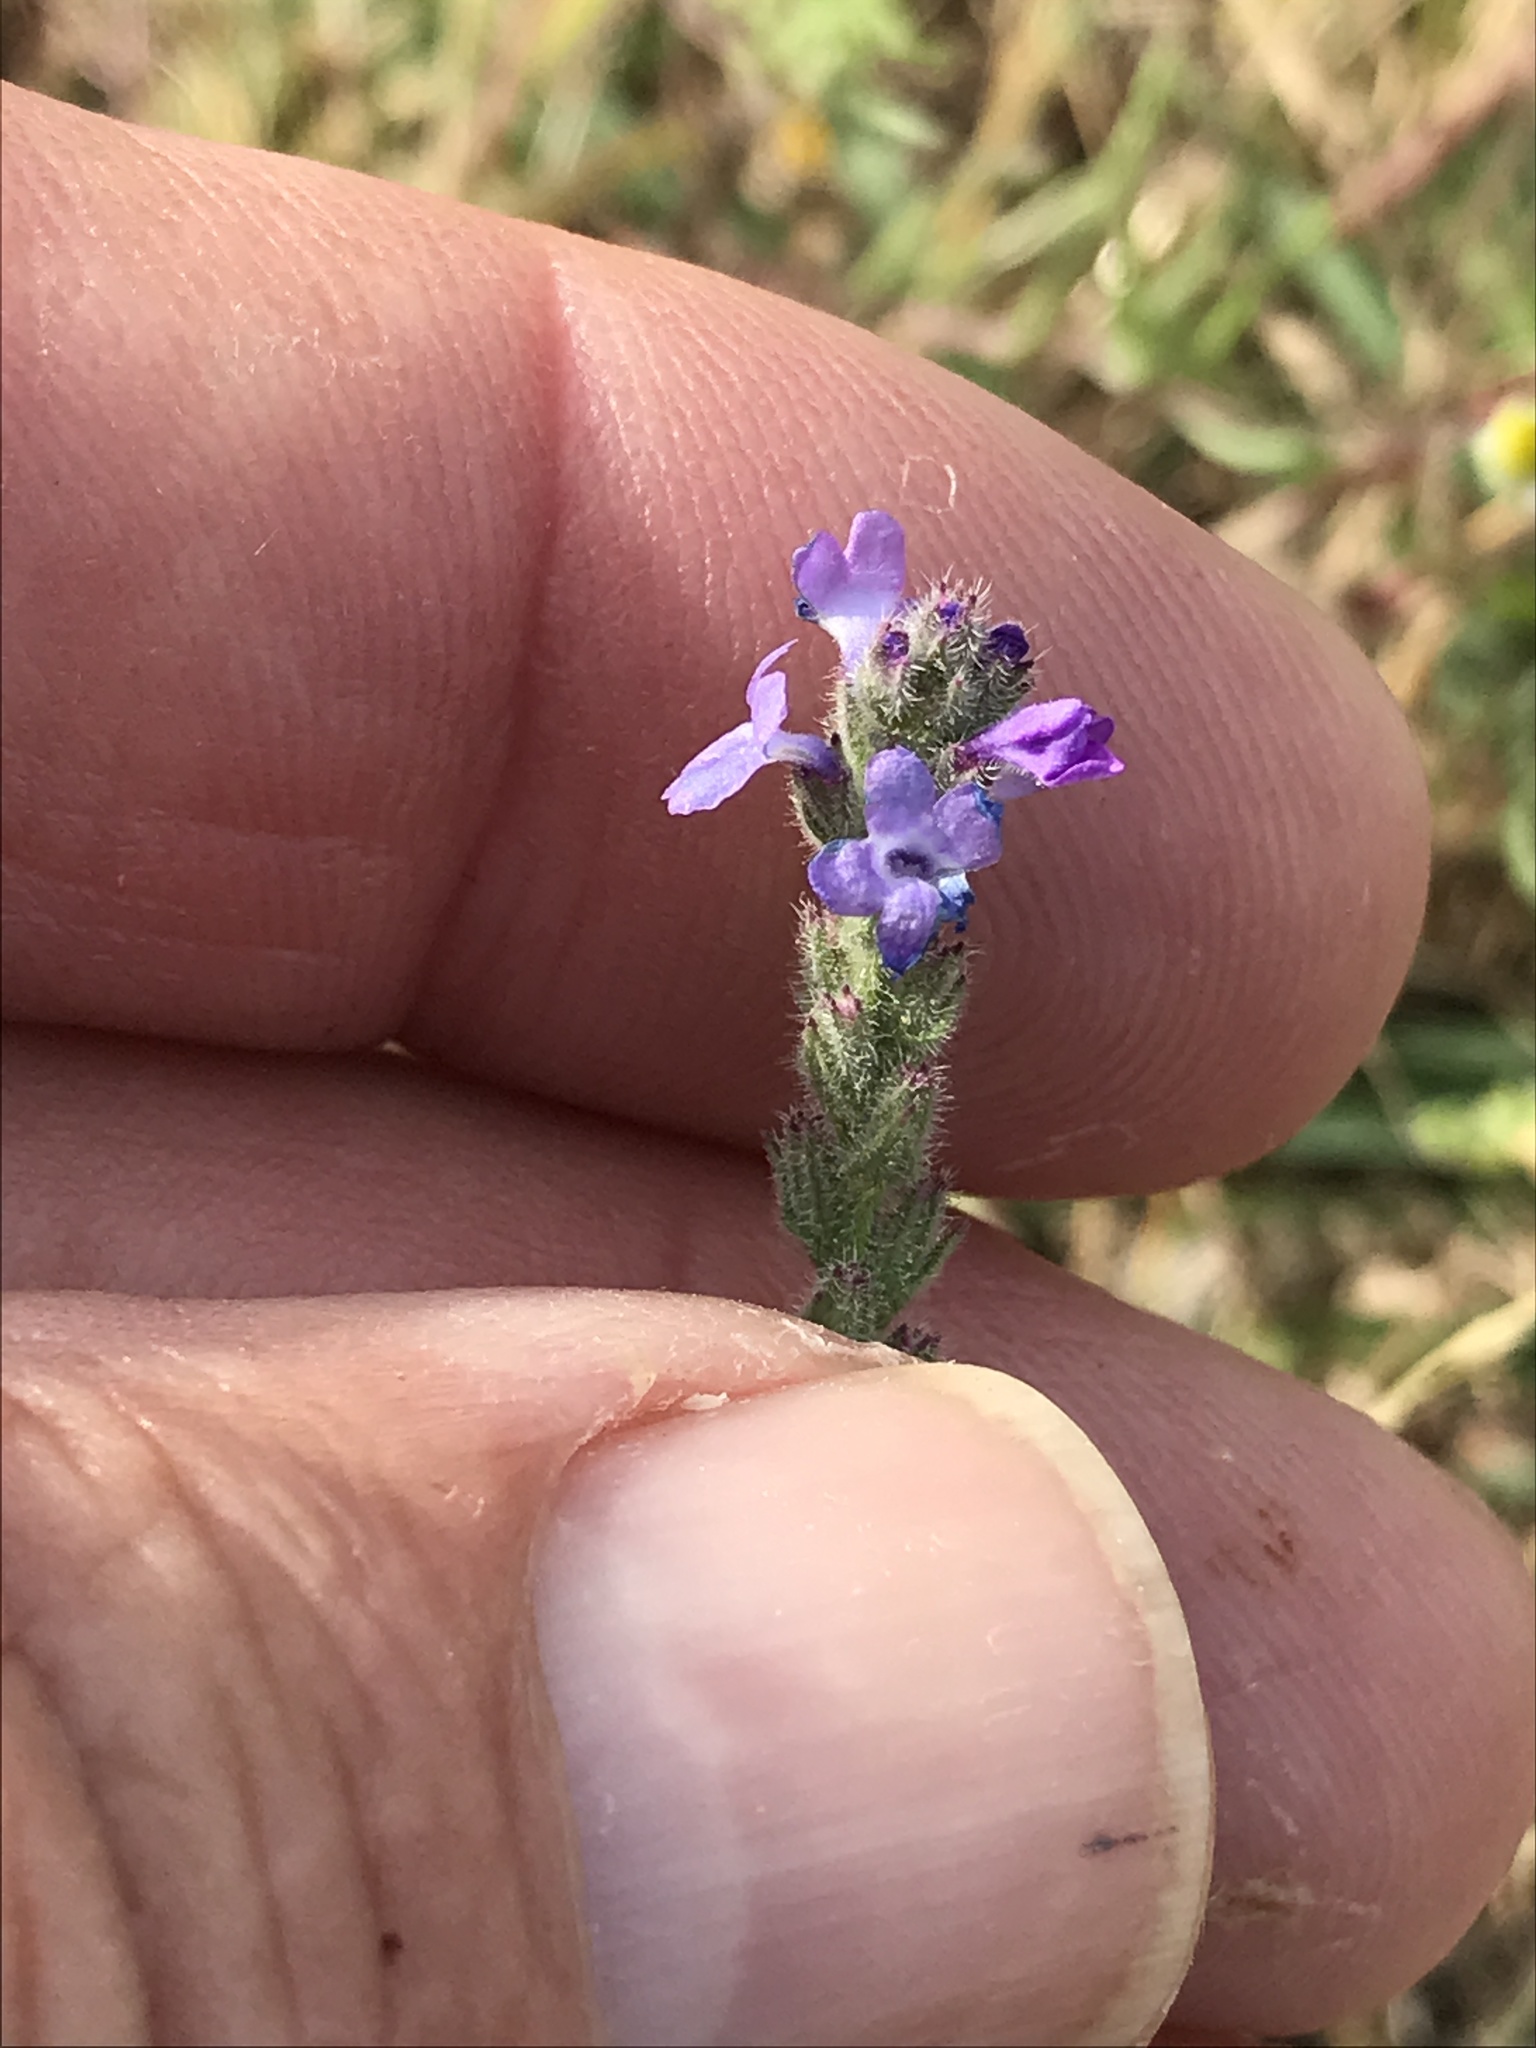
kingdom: Plantae
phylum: Tracheophyta
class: Magnoliopsida
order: Lamiales
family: Verbenaceae
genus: Verbena
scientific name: Verbena canescens
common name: Gray vervain
